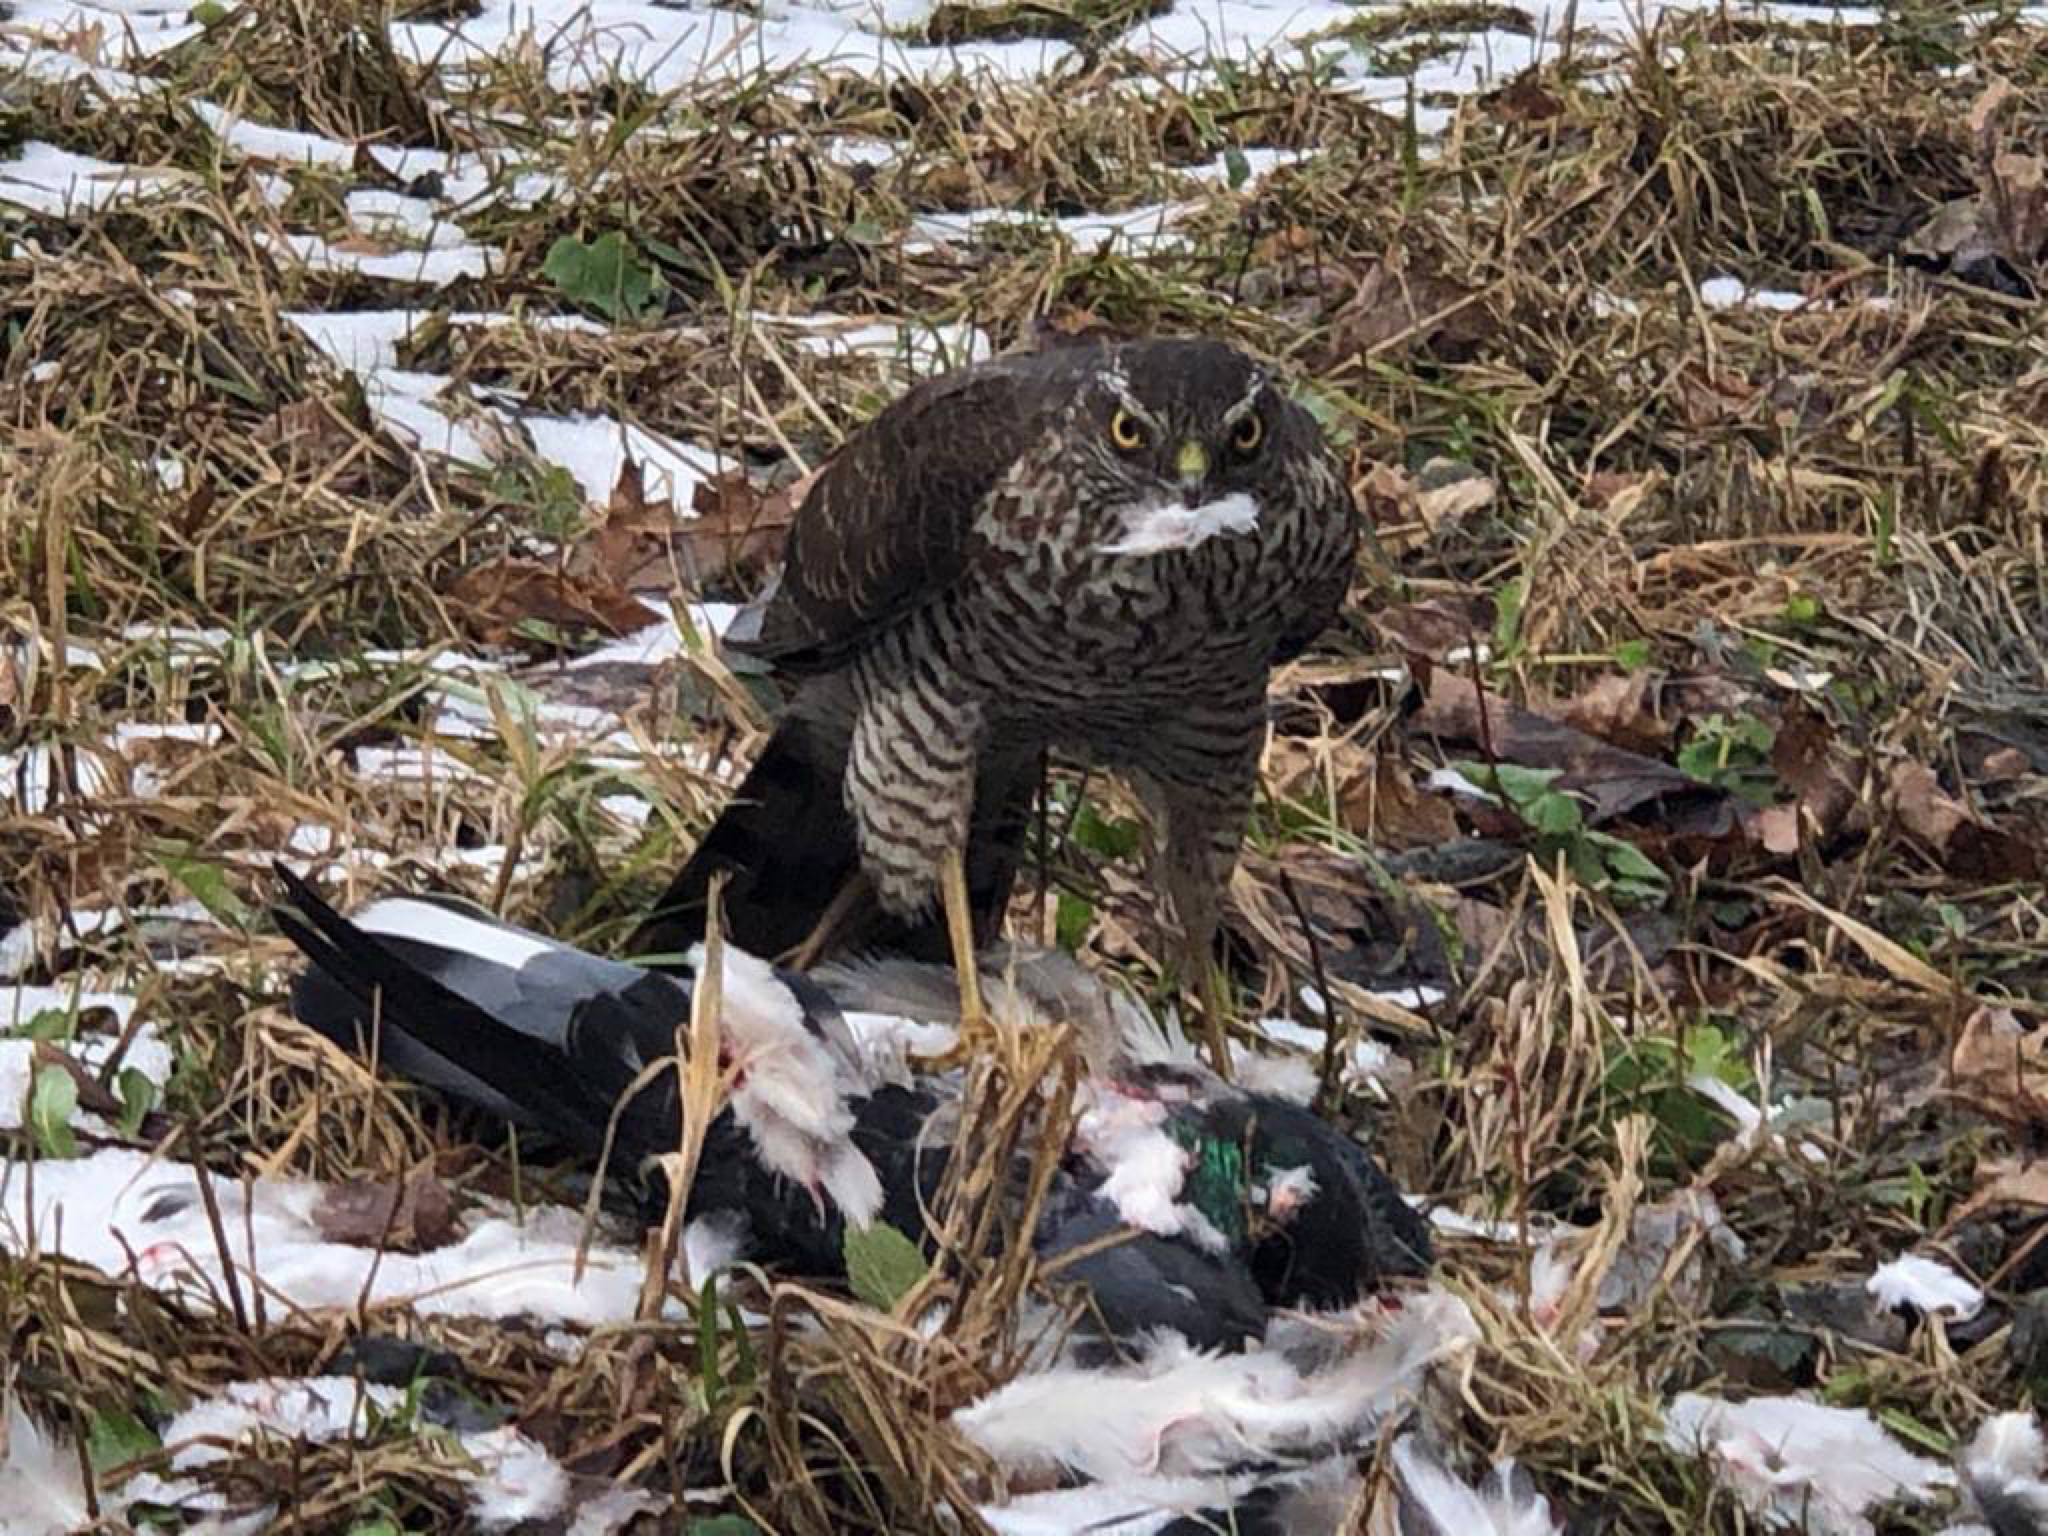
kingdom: Animalia
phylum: Chordata
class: Aves
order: Accipitriformes
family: Accipitridae
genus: Accipiter
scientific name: Accipiter nisus
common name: Eurasian sparrowhawk
